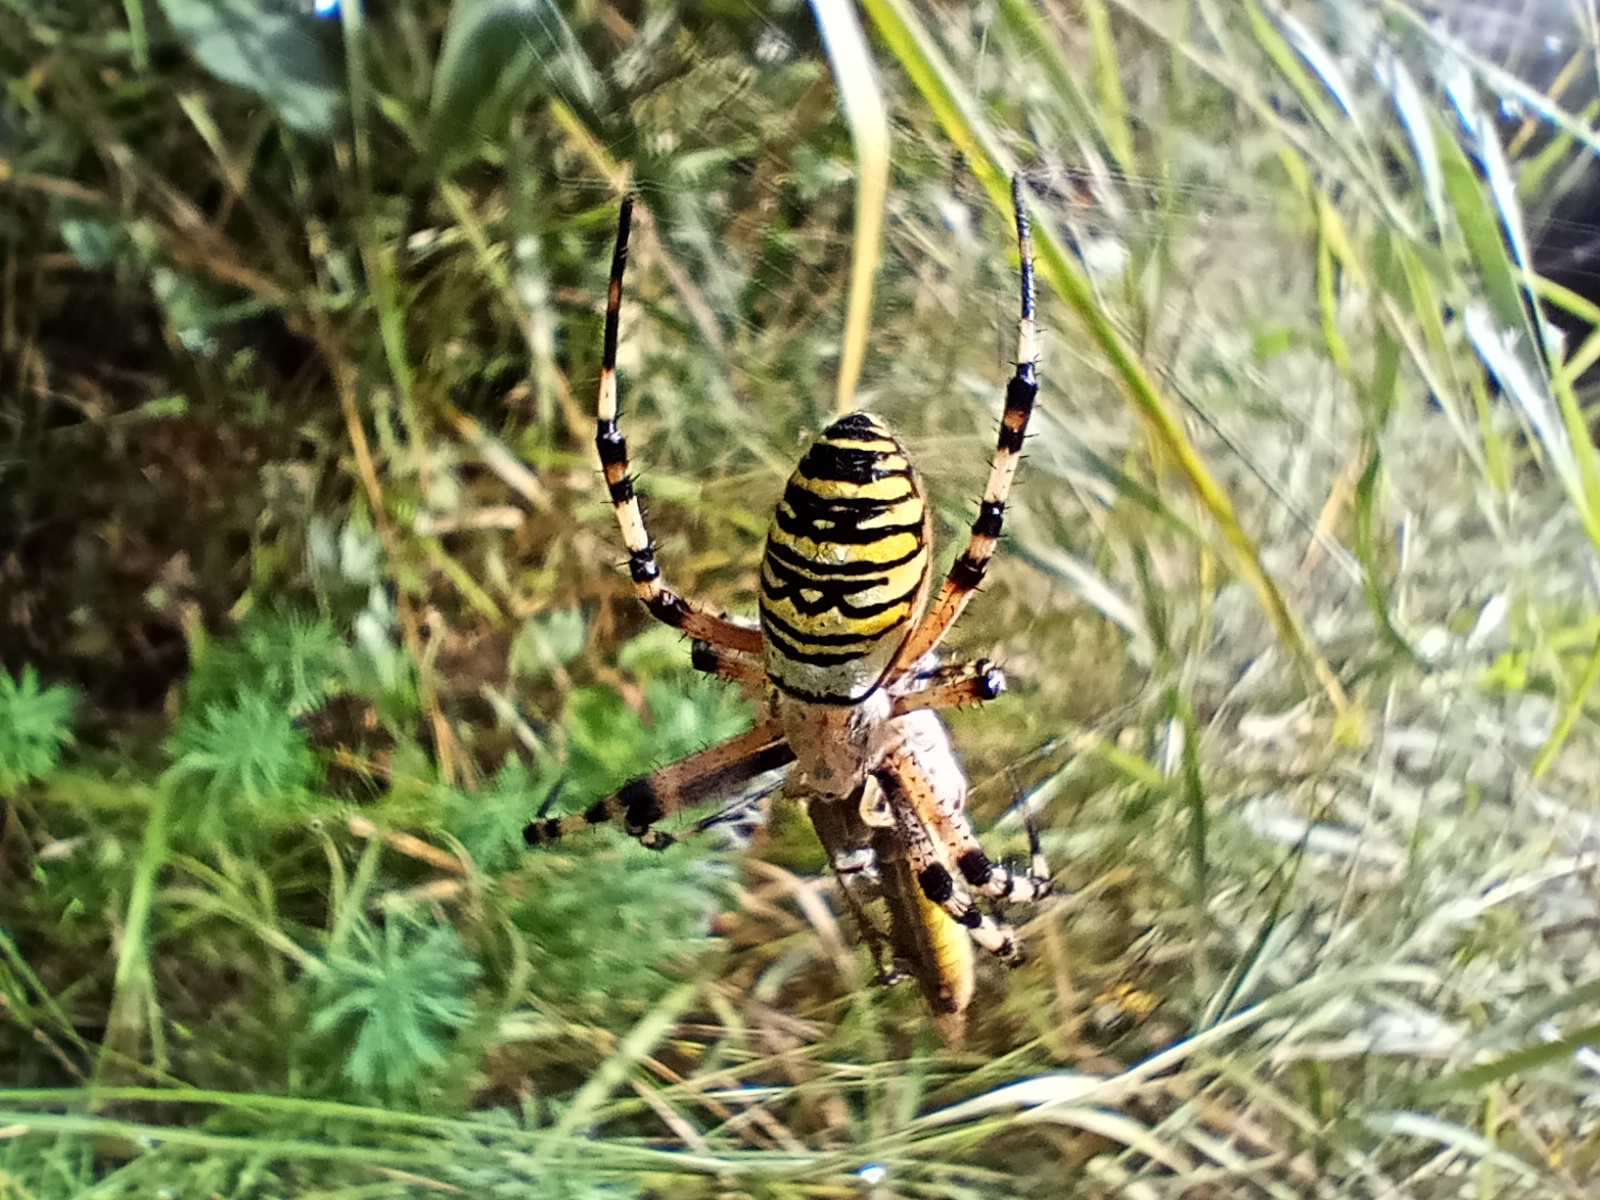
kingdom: Animalia
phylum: Arthropoda
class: Arachnida
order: Araneae
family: Araneidae
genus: Argiope
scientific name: Argiope bruennichi
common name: Wasp spider
